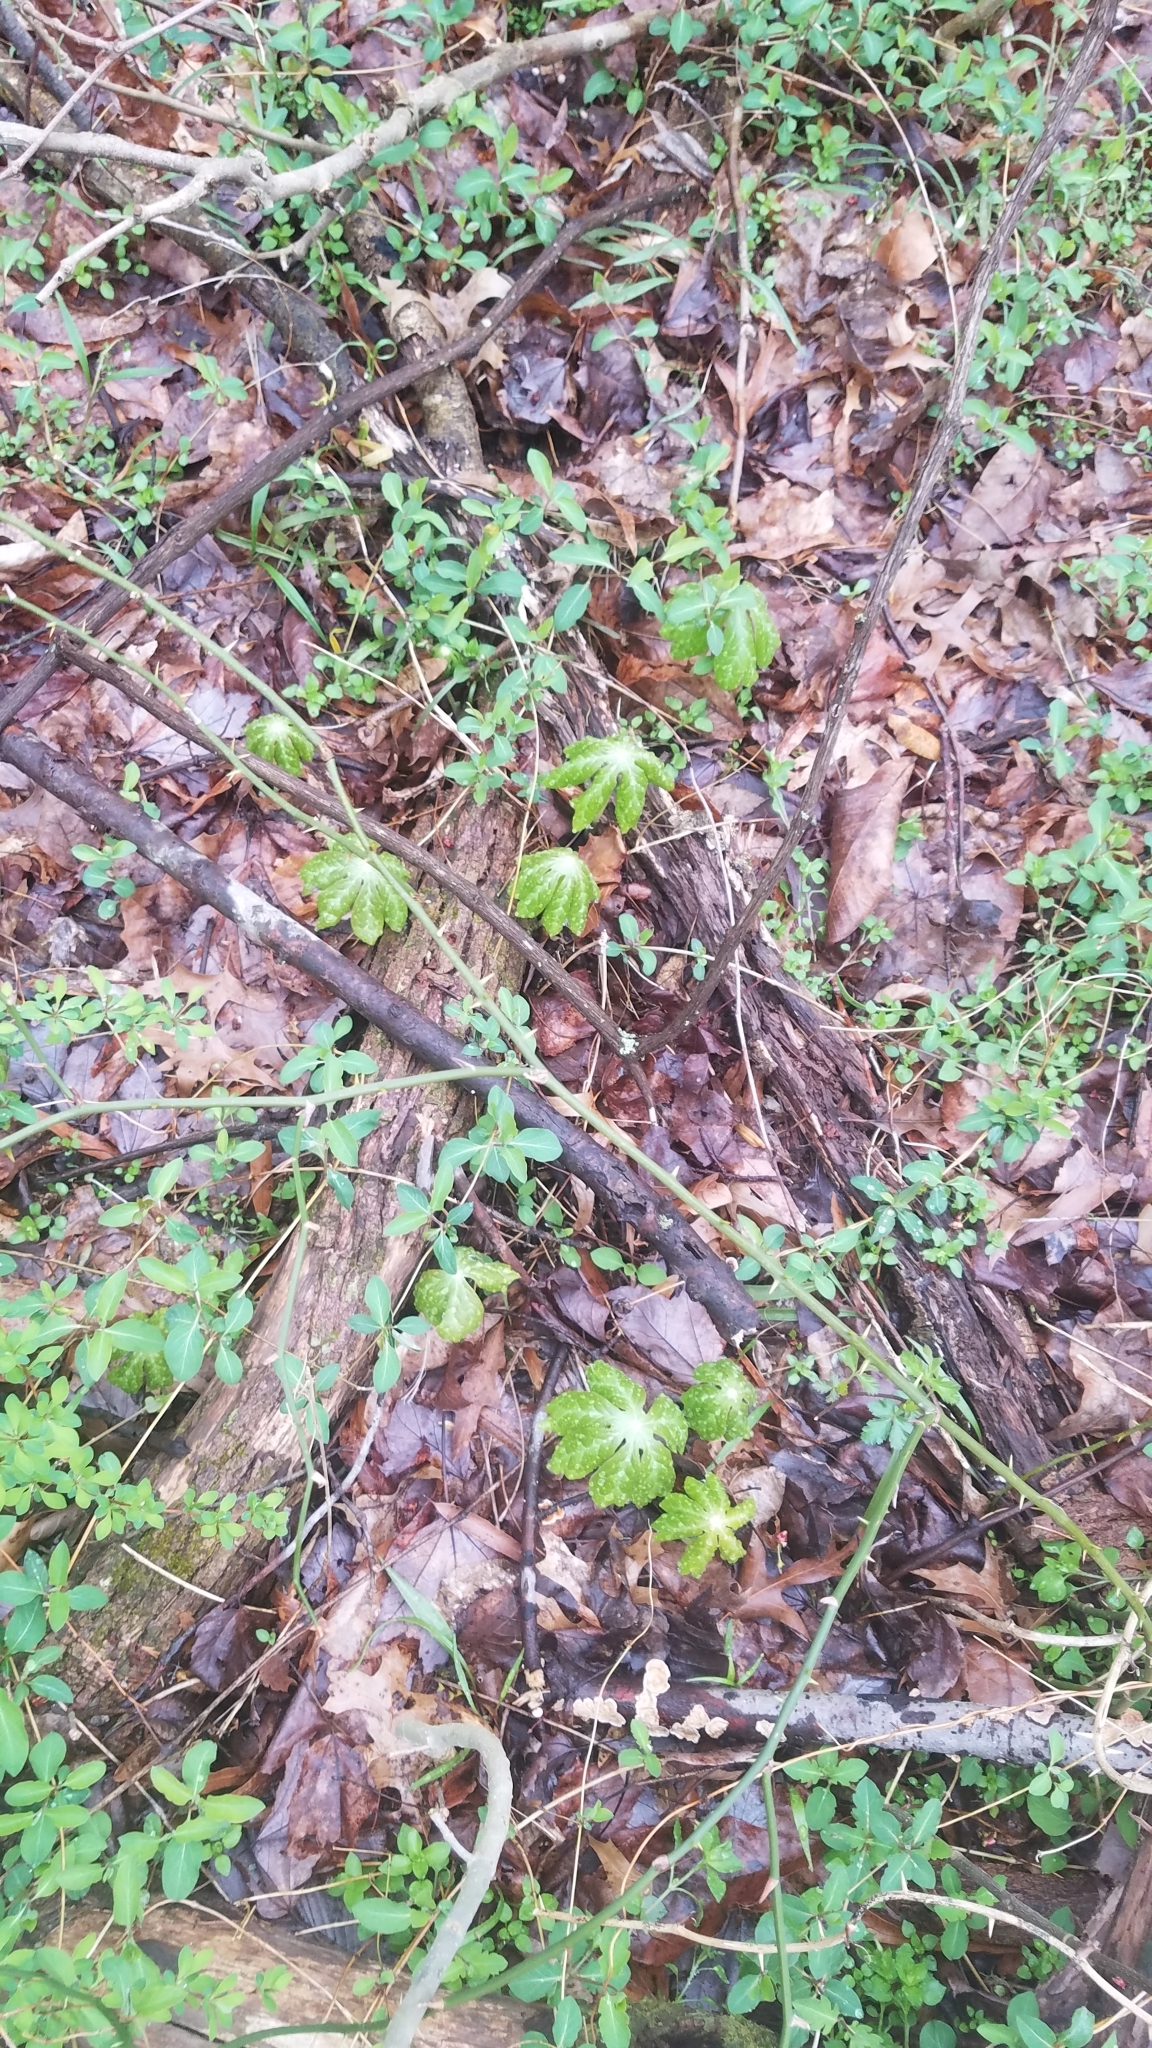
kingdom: Plantae
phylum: Tracheophyta
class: Magnoliopsida
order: Ranunculales
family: Berberidaceae
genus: Podophyllum
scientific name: Podophyllum peltatum
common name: Wild mandrake
